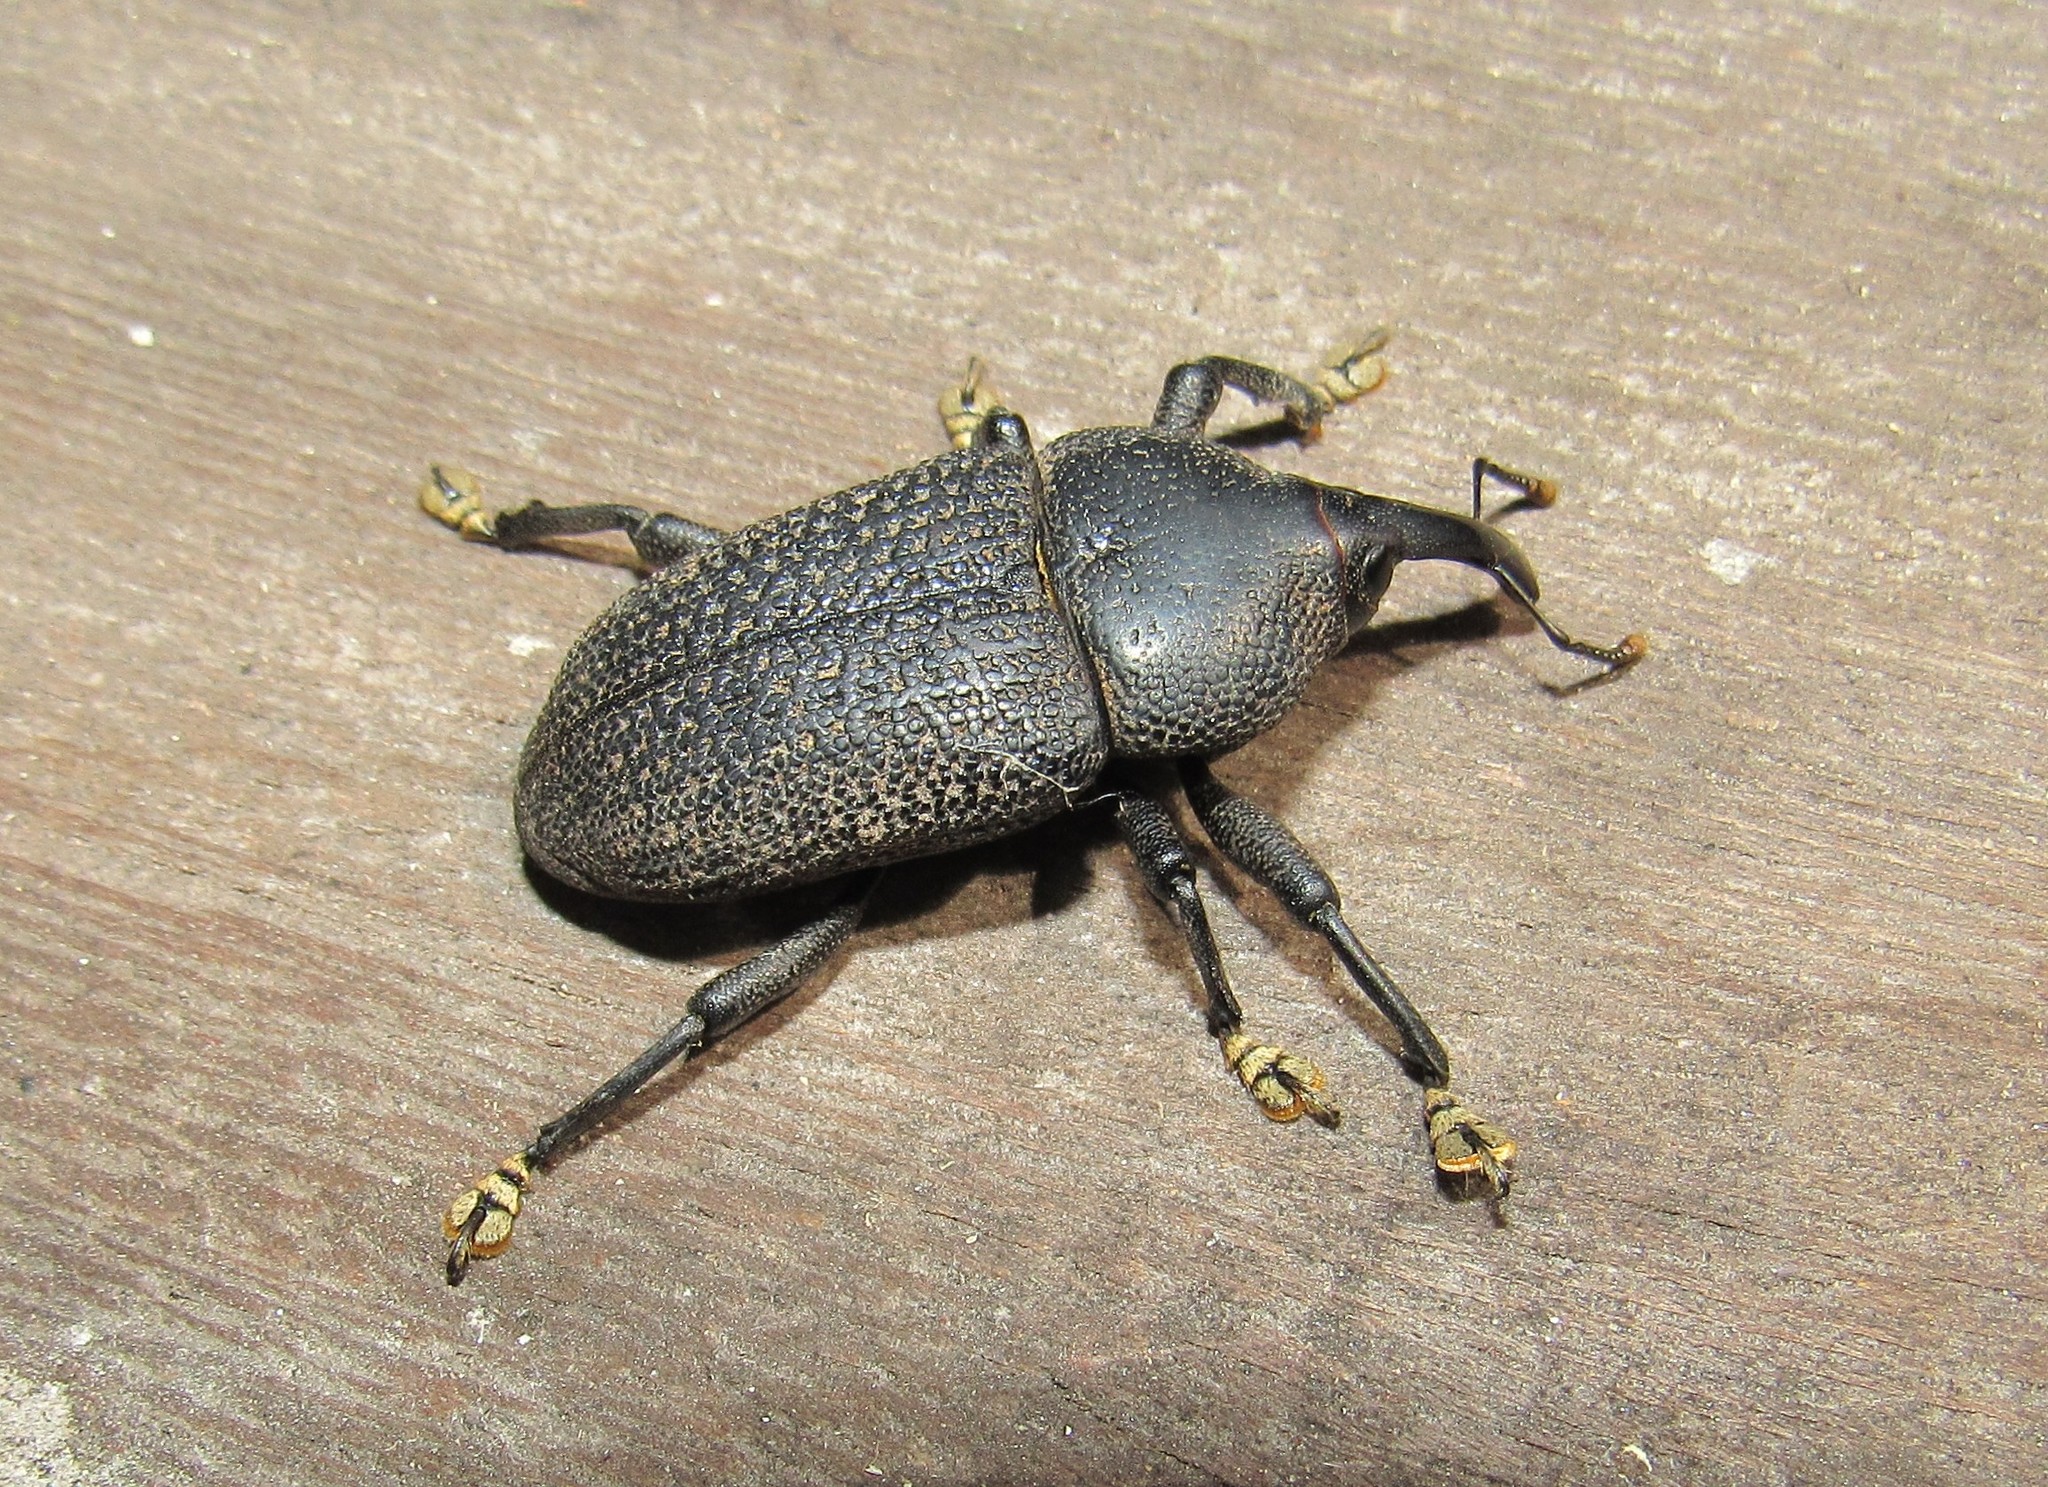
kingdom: Animalia
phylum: Arthropoda
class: Insecta
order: Coleoptera
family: Curculionidae
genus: Homalinotus
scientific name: Homalinotus coriaceus
